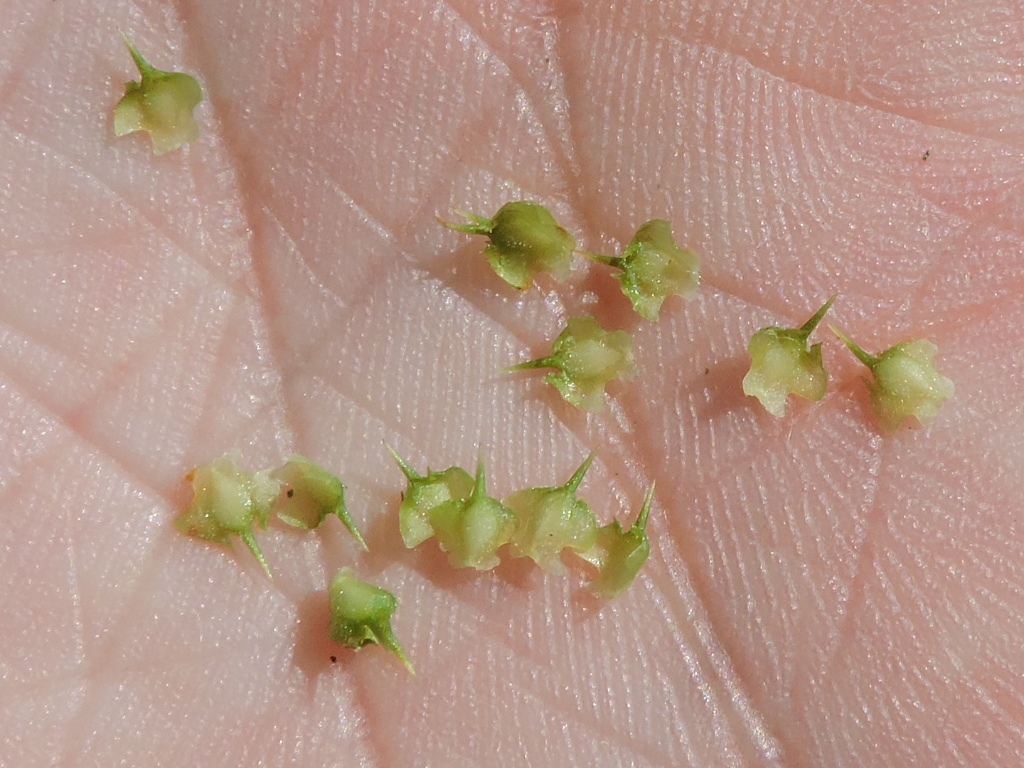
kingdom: Plantae
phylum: Tracheophyta
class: Magnoliopsida
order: Asterales
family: Asteraceae
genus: Soliva
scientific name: Soliva sessilis
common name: Field burrweed
